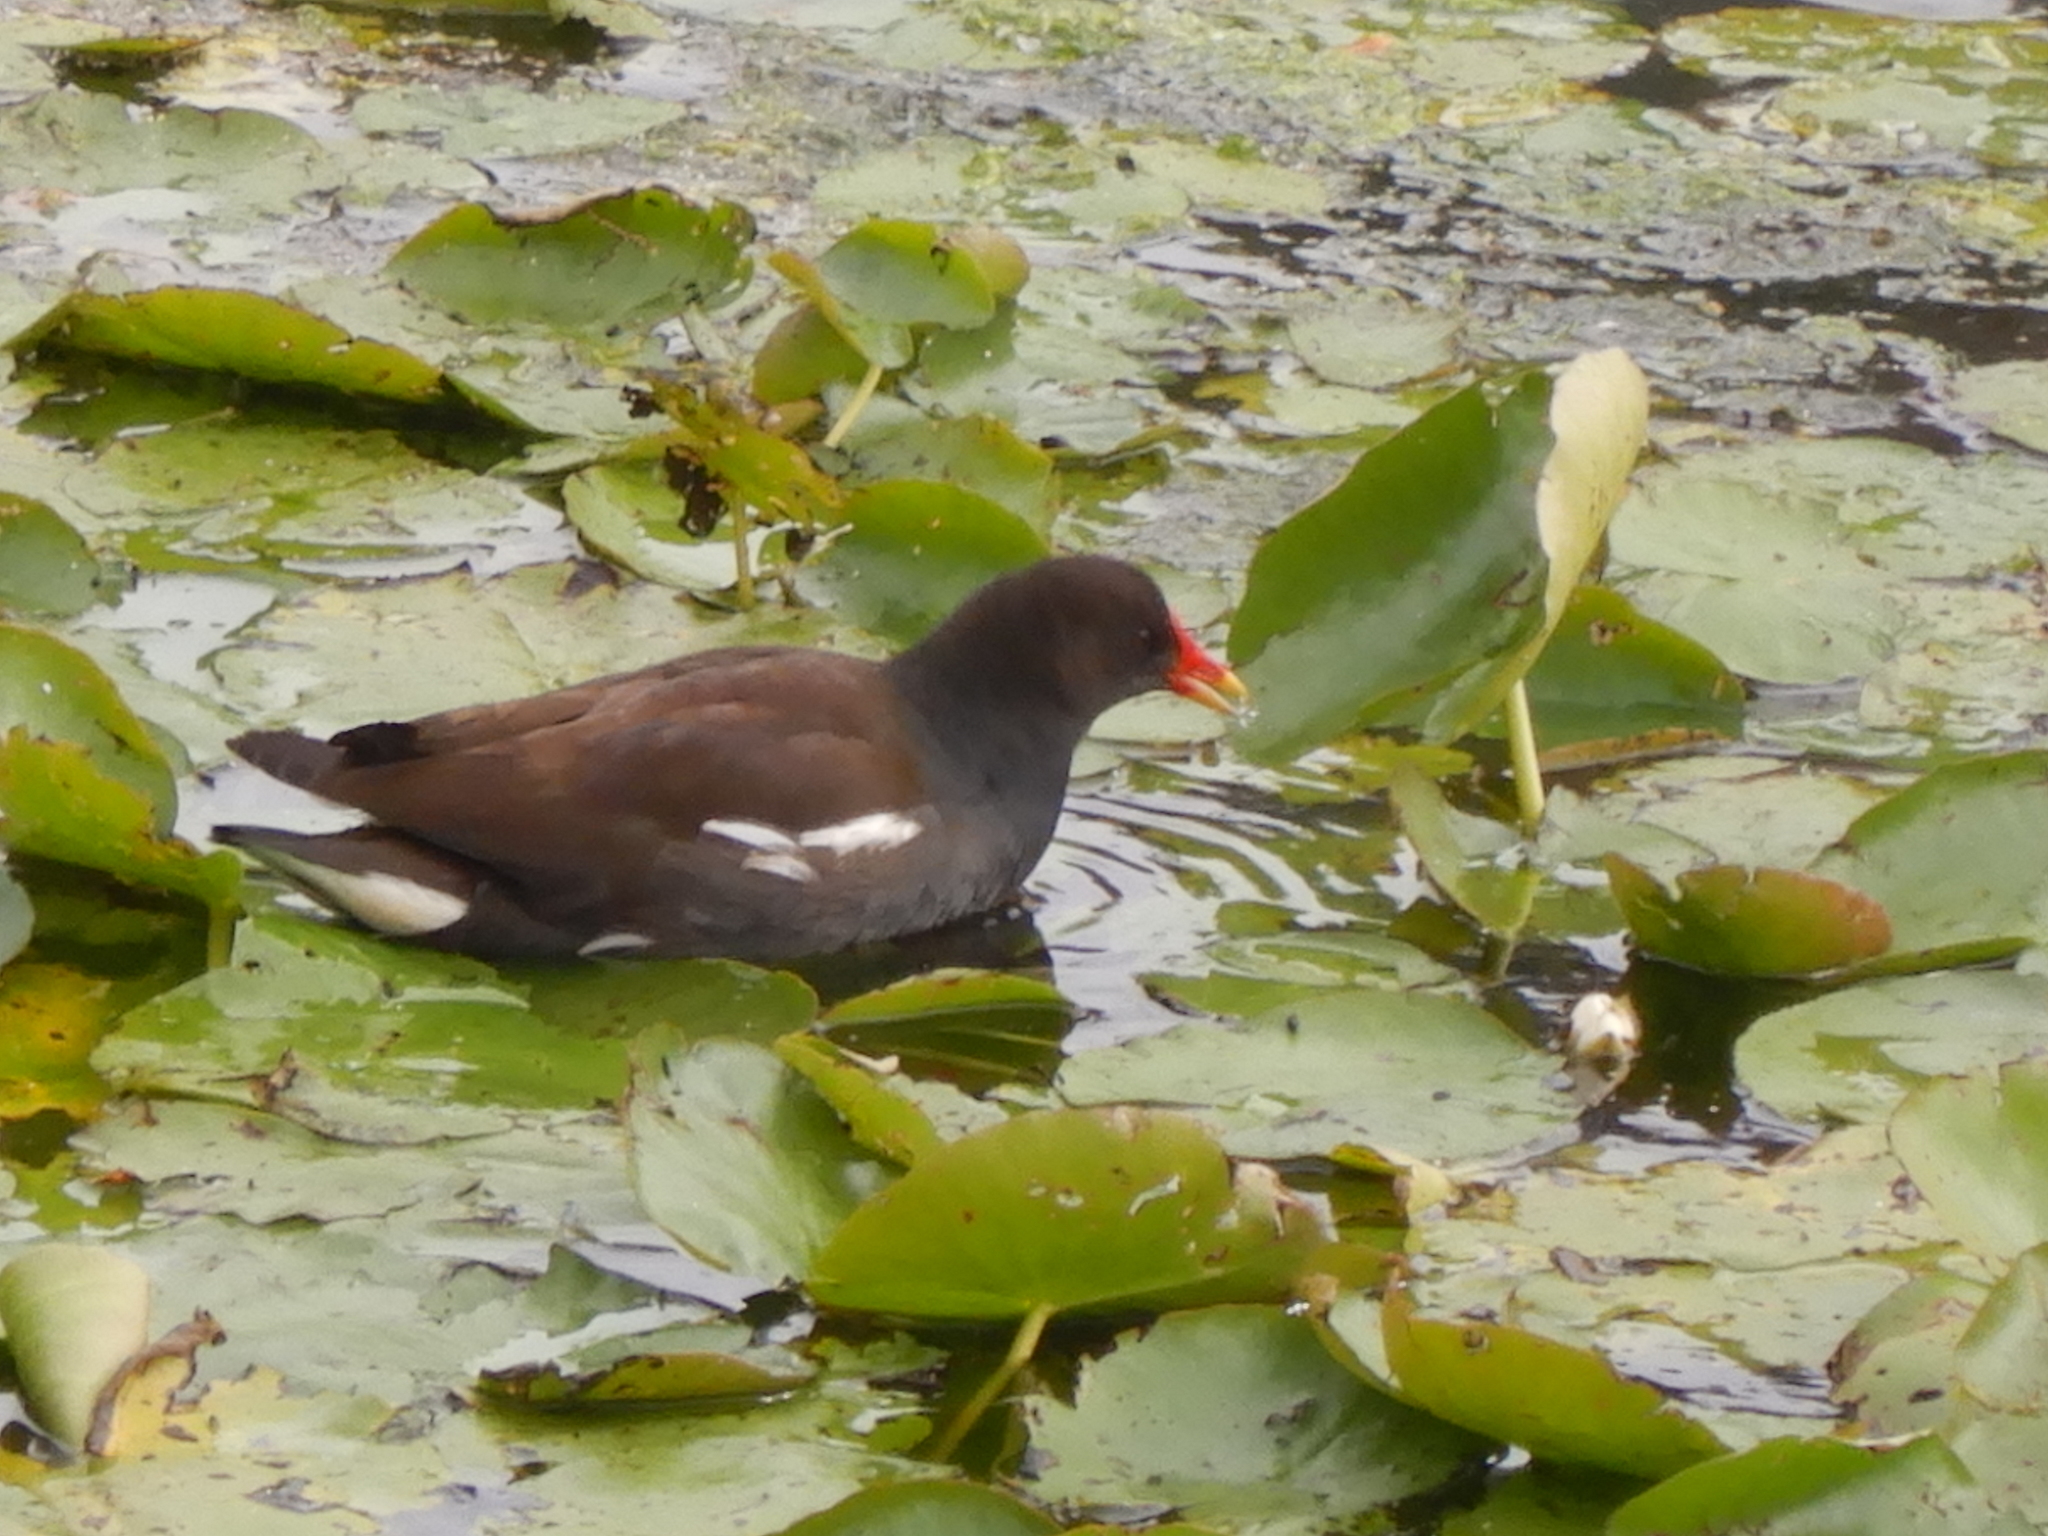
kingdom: Animalia
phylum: Chordata
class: Aves
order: Gruiformes
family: Rallidae
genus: Gallinula
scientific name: Gallinula chloropus
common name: Common moorhen
